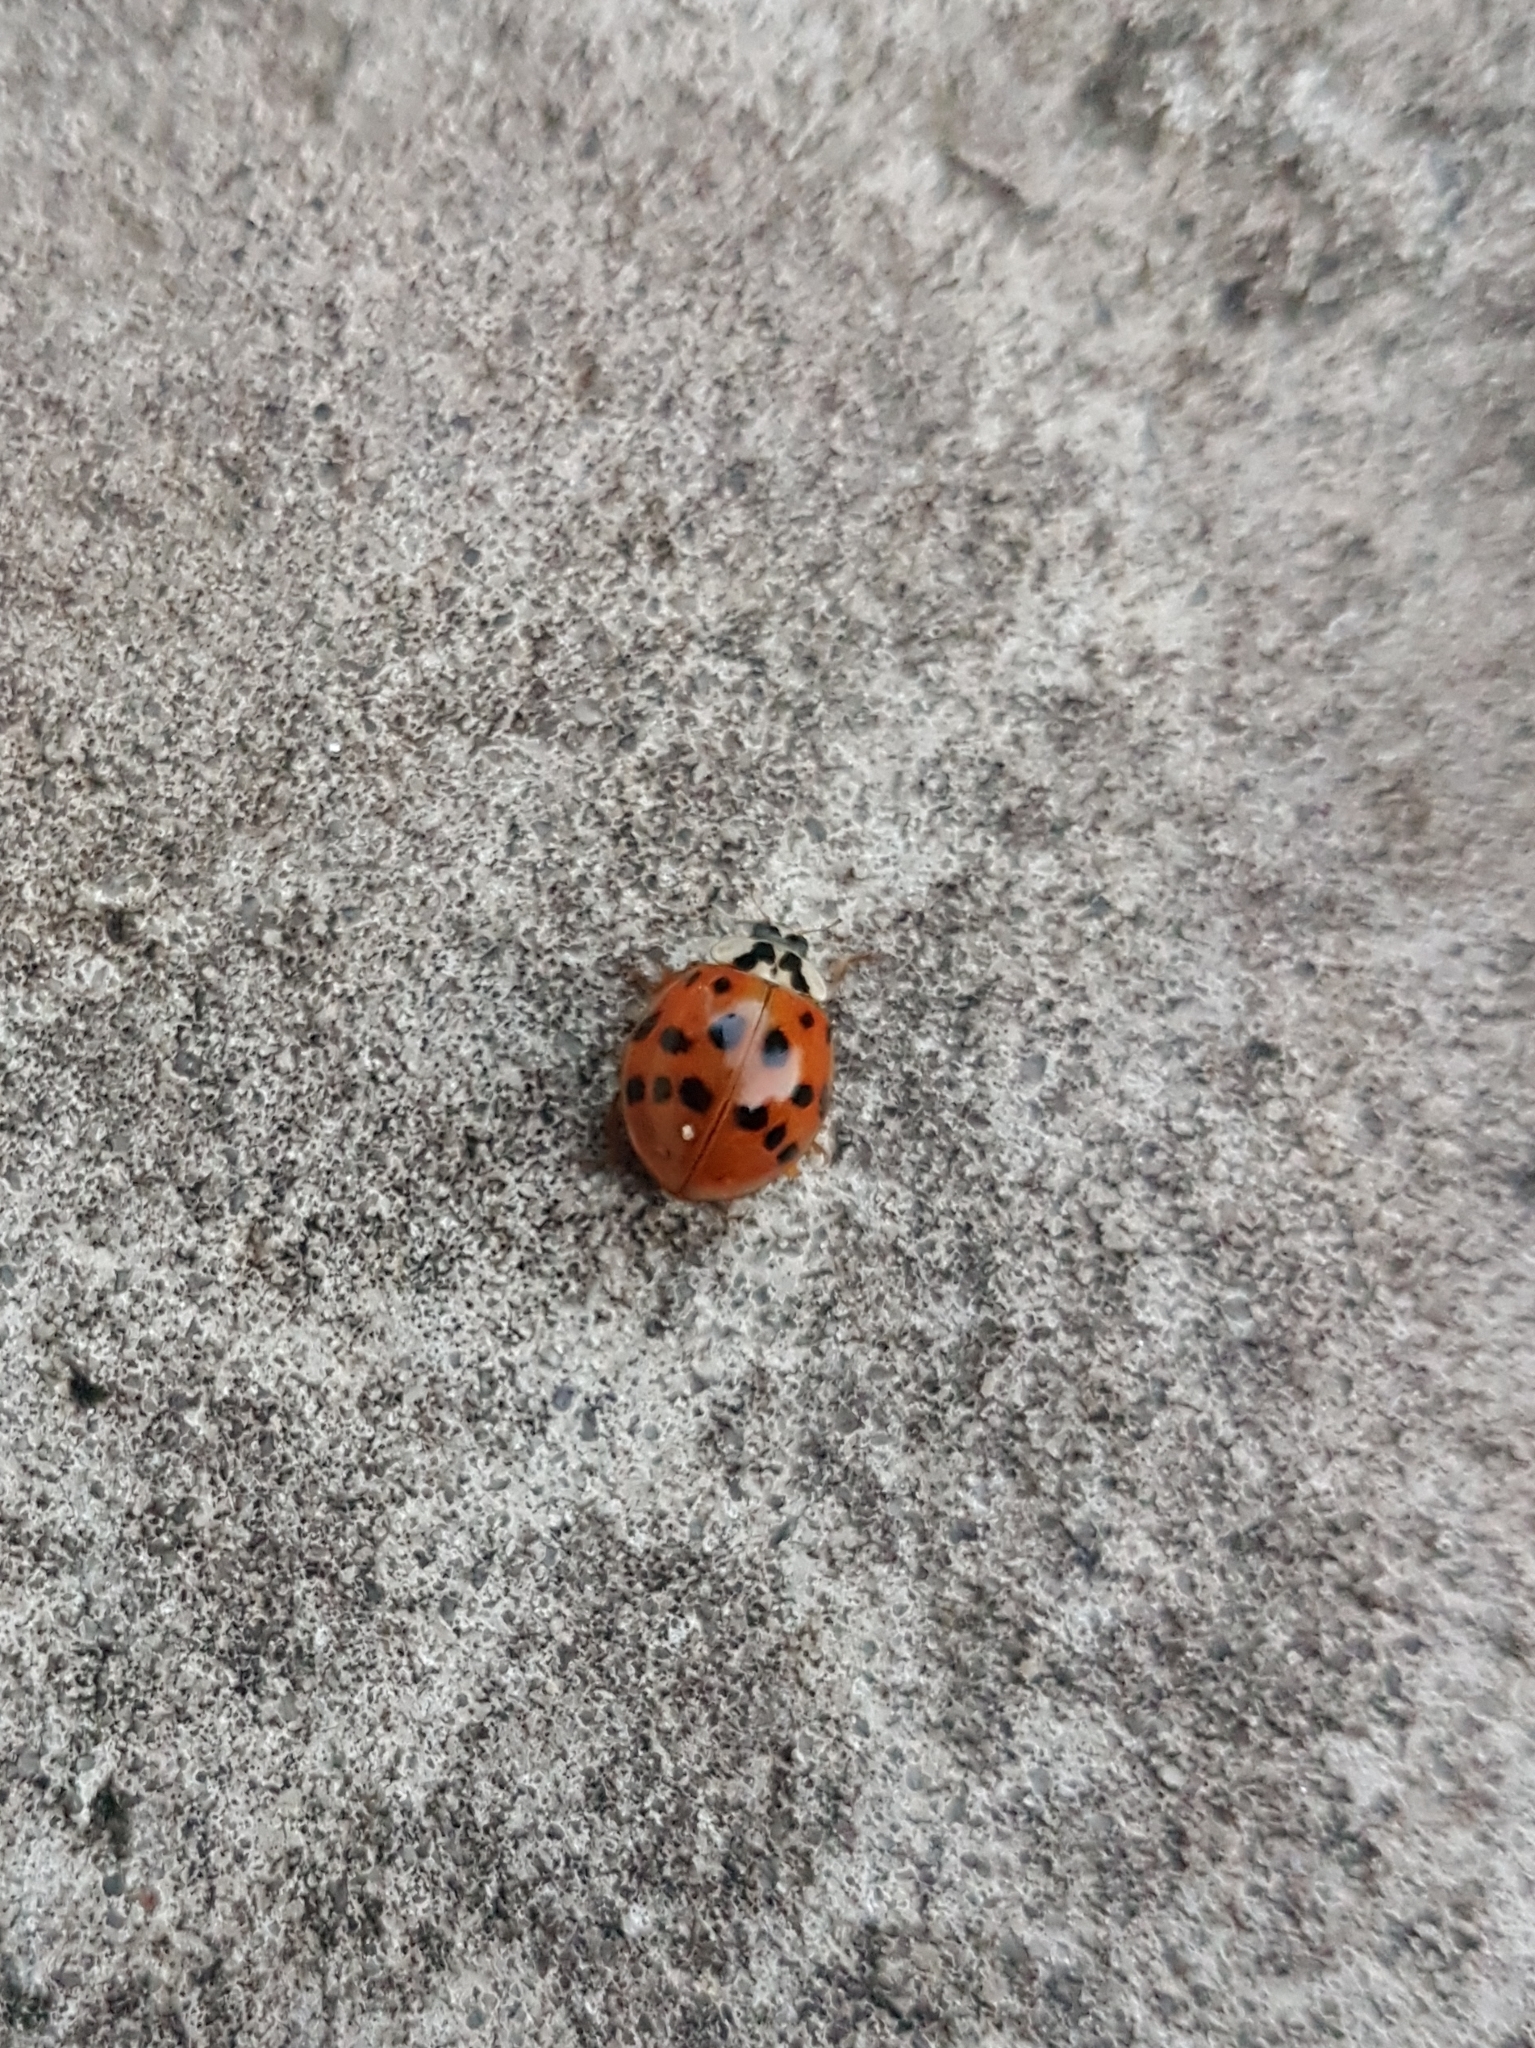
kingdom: Animalia
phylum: Arthropoda
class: Insecta
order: Coleoptera
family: Coccinellidae
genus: Harmonia
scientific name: Harmonia axyridis
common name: Harlequin ladybird
